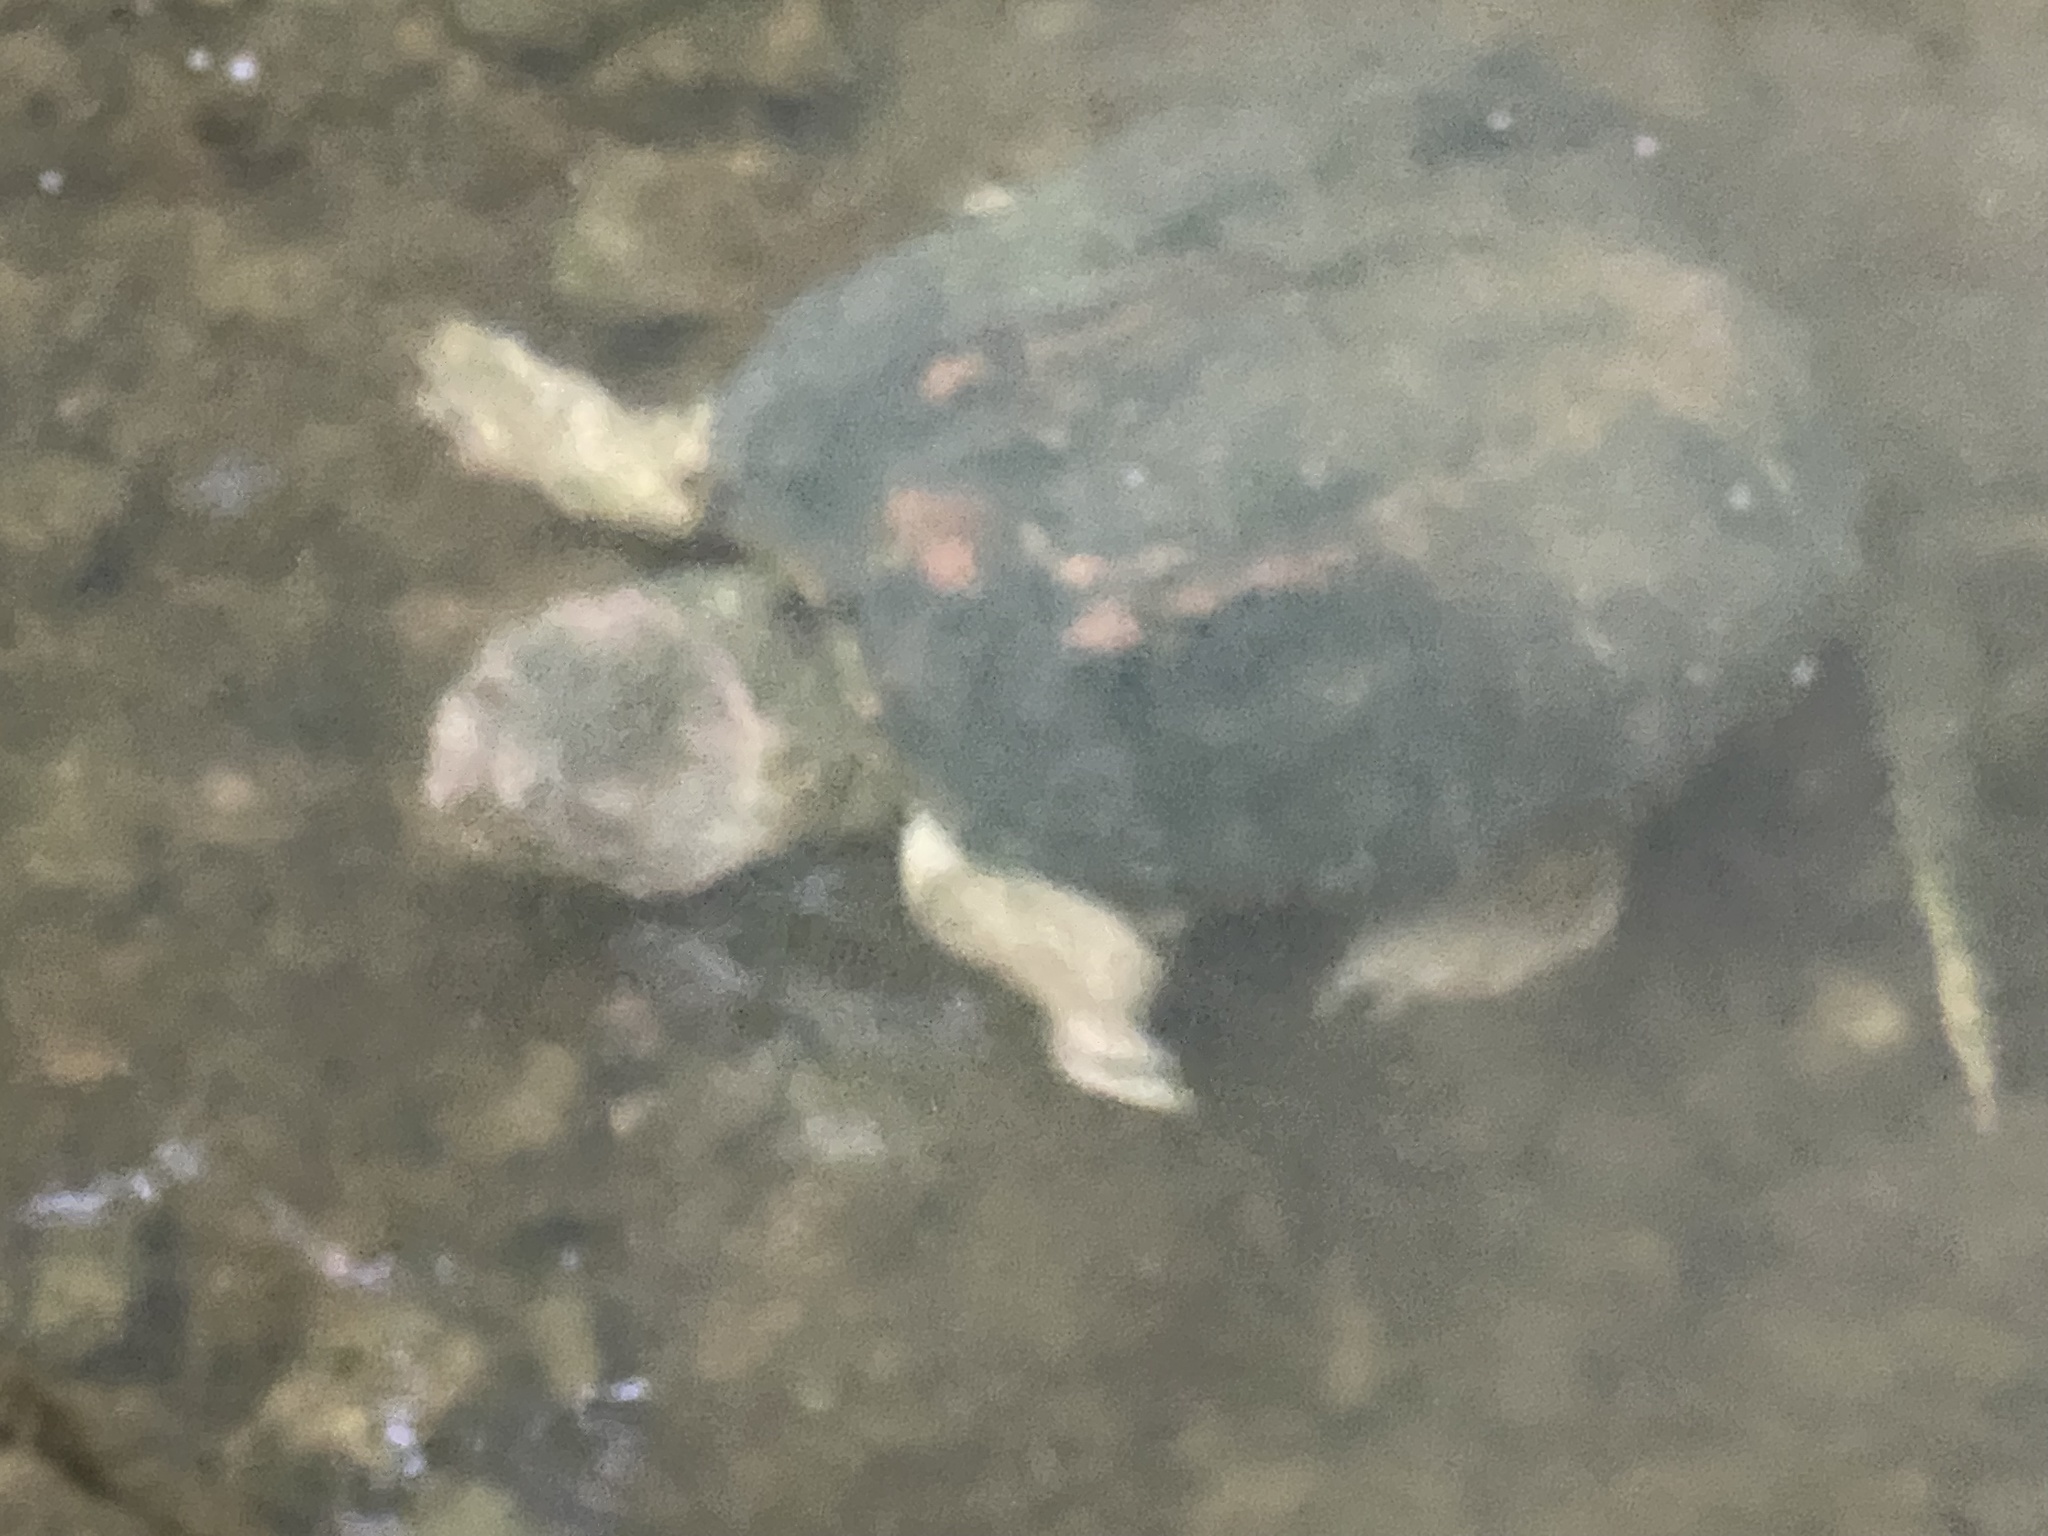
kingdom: Animalia
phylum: Chordata
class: Testudines
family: Chelydridae
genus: Chelydra
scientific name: Chelydra serpentina
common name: Common snapping turtle
